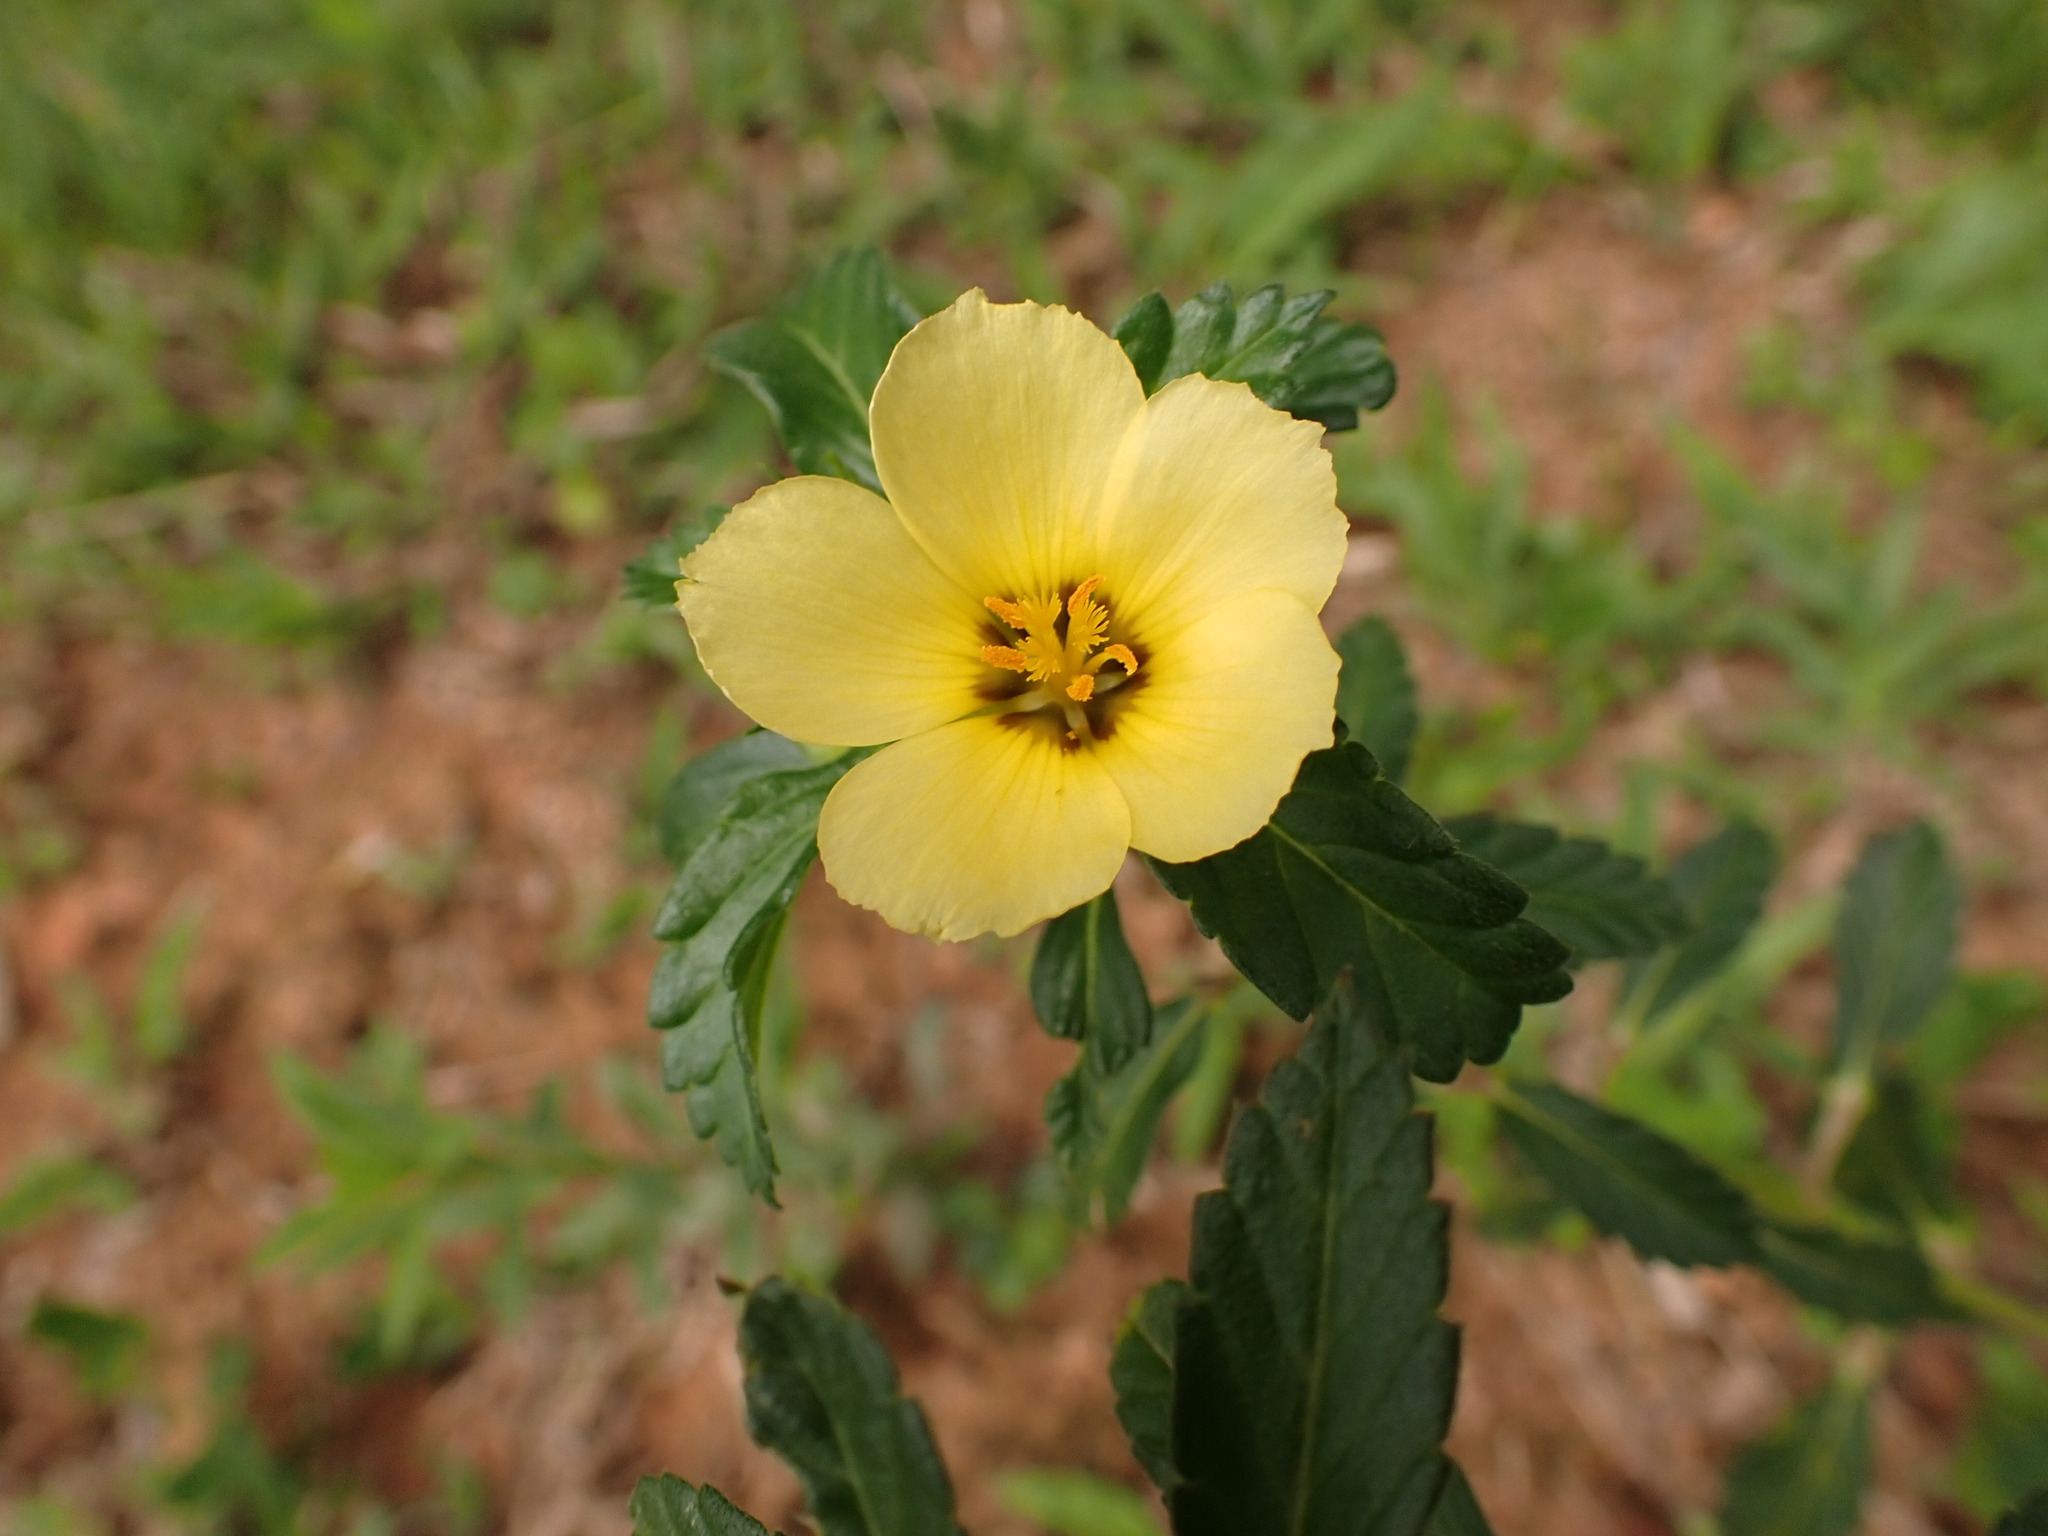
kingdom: Plantae
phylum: Tracheophyta
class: Magnoliopsida
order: Malpighiales
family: Turneraceae
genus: Turnera
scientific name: Turnera subulata
